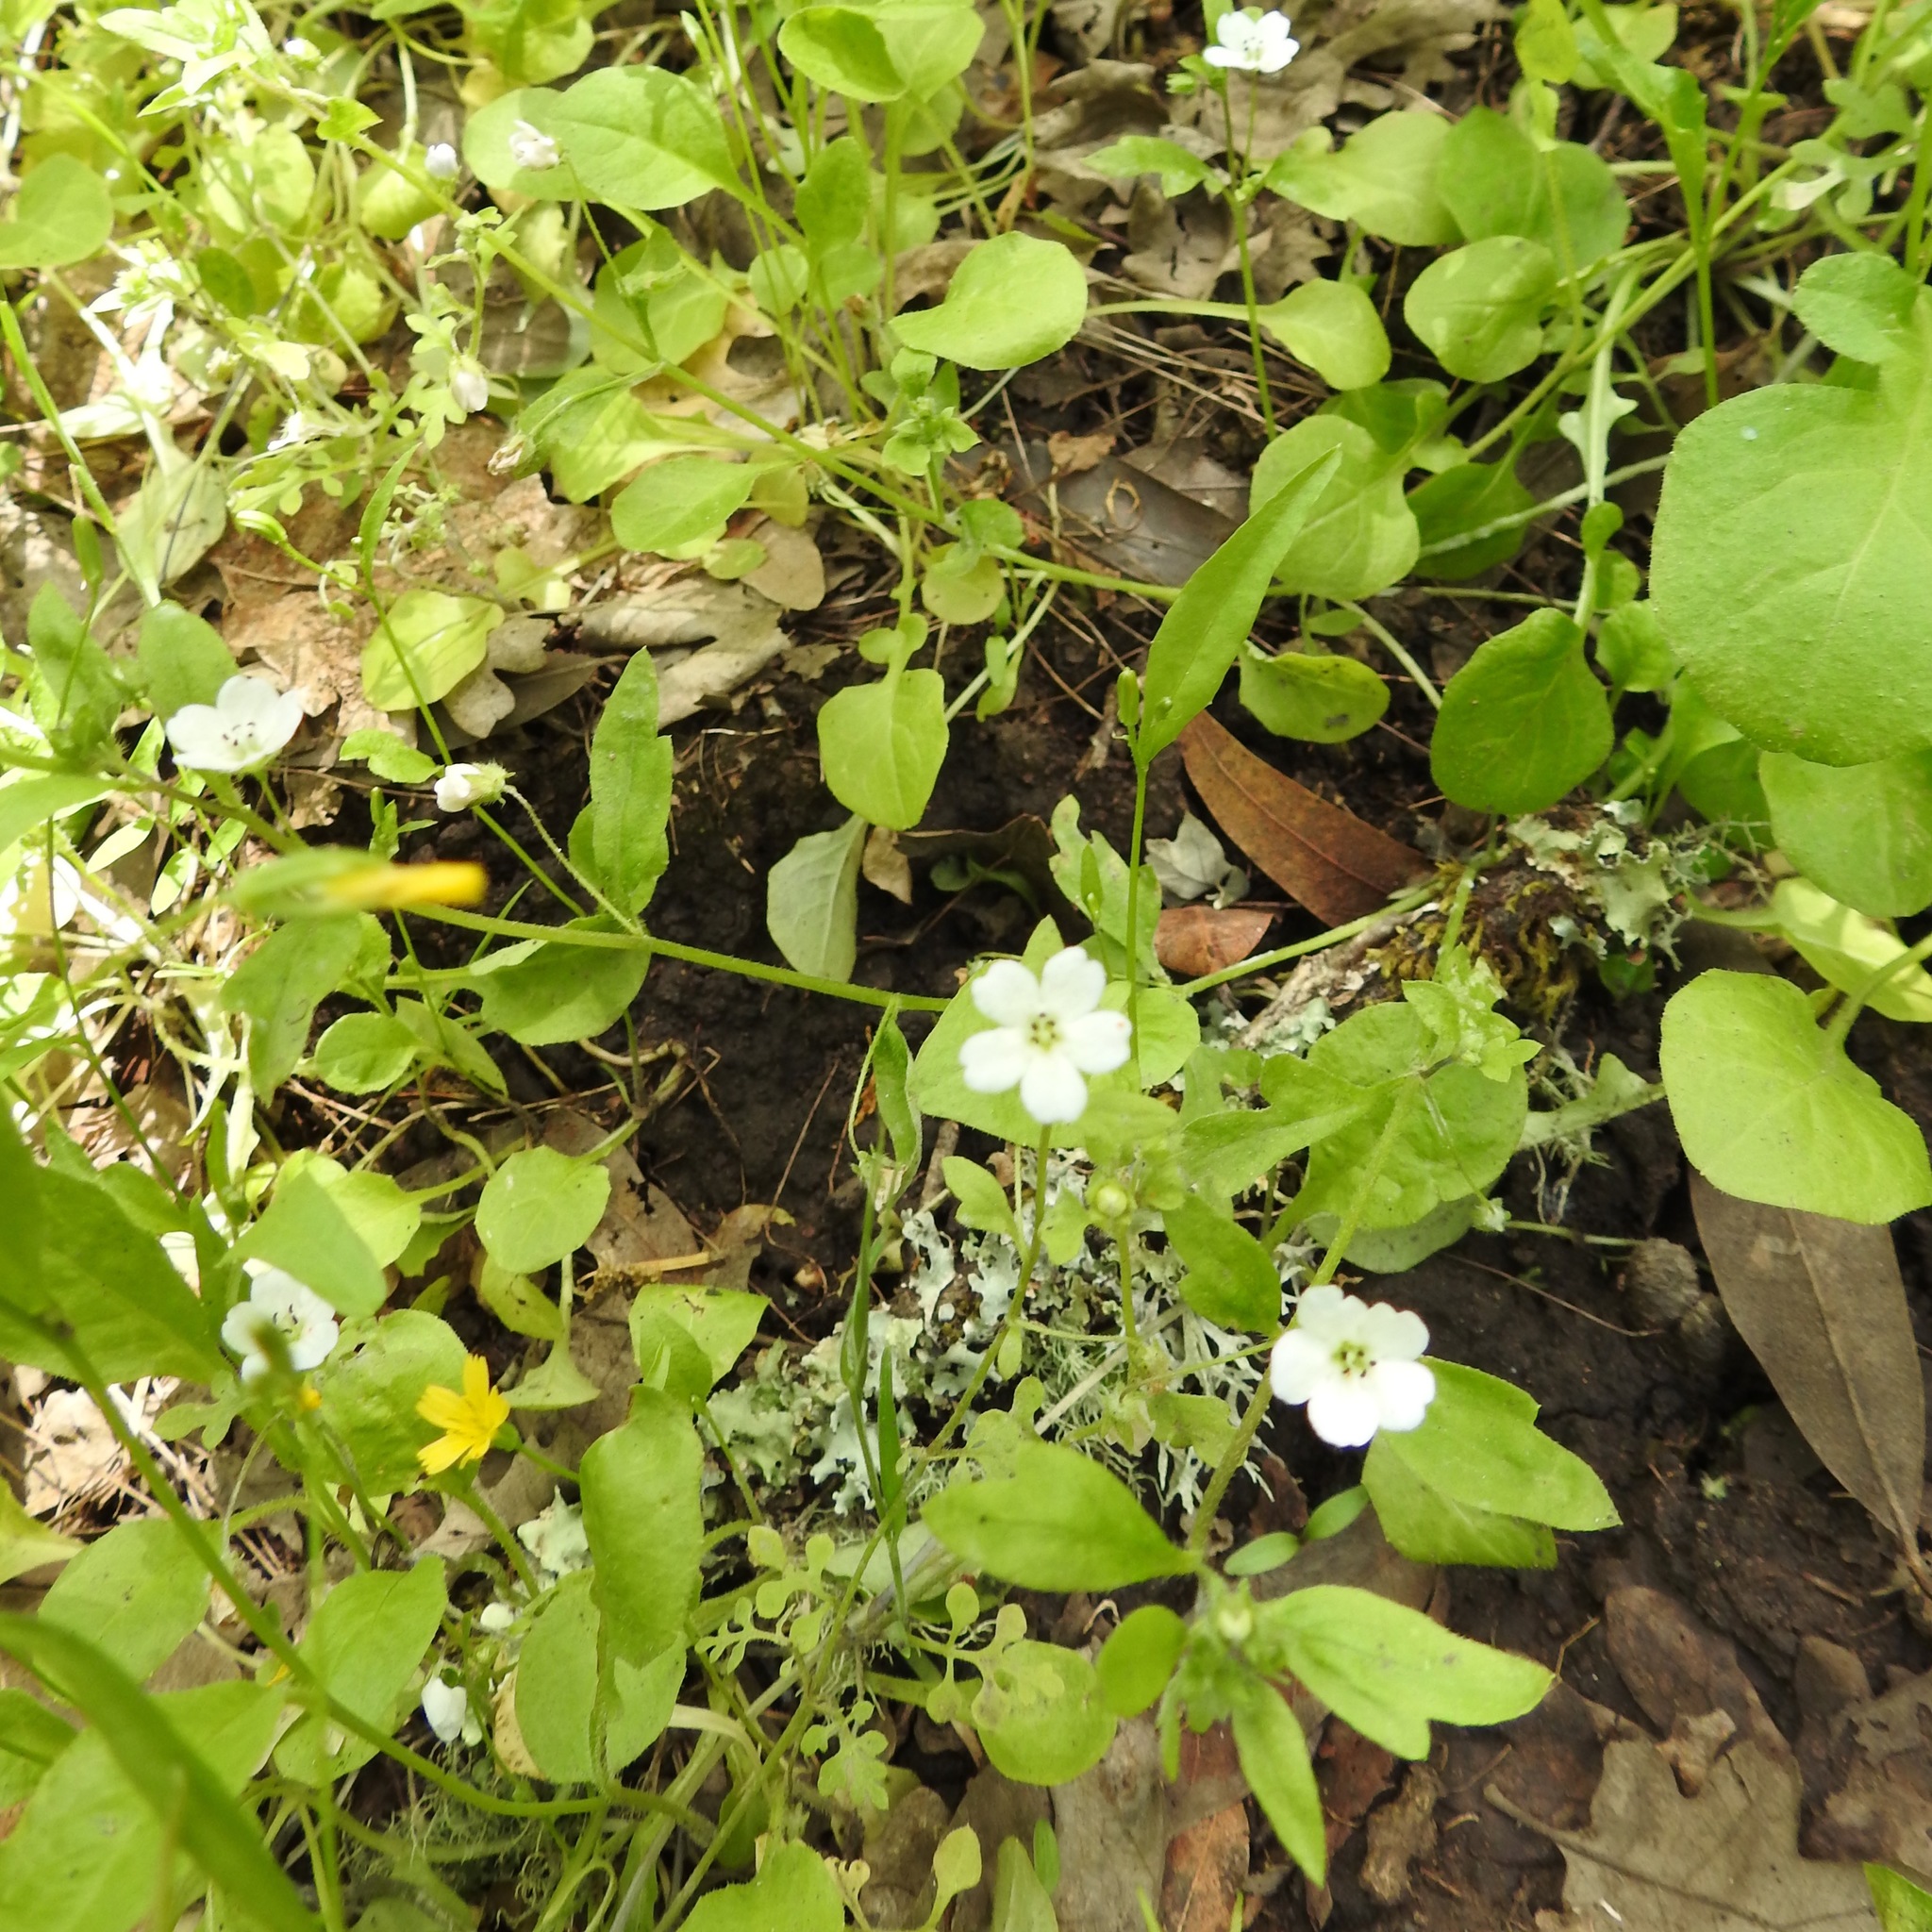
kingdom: Plantae
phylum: Tracheophyta
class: Magnoliopsida
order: Boraginales
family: Hydrophyllaceae
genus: Nemophila
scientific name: Nemophila heterophylla
